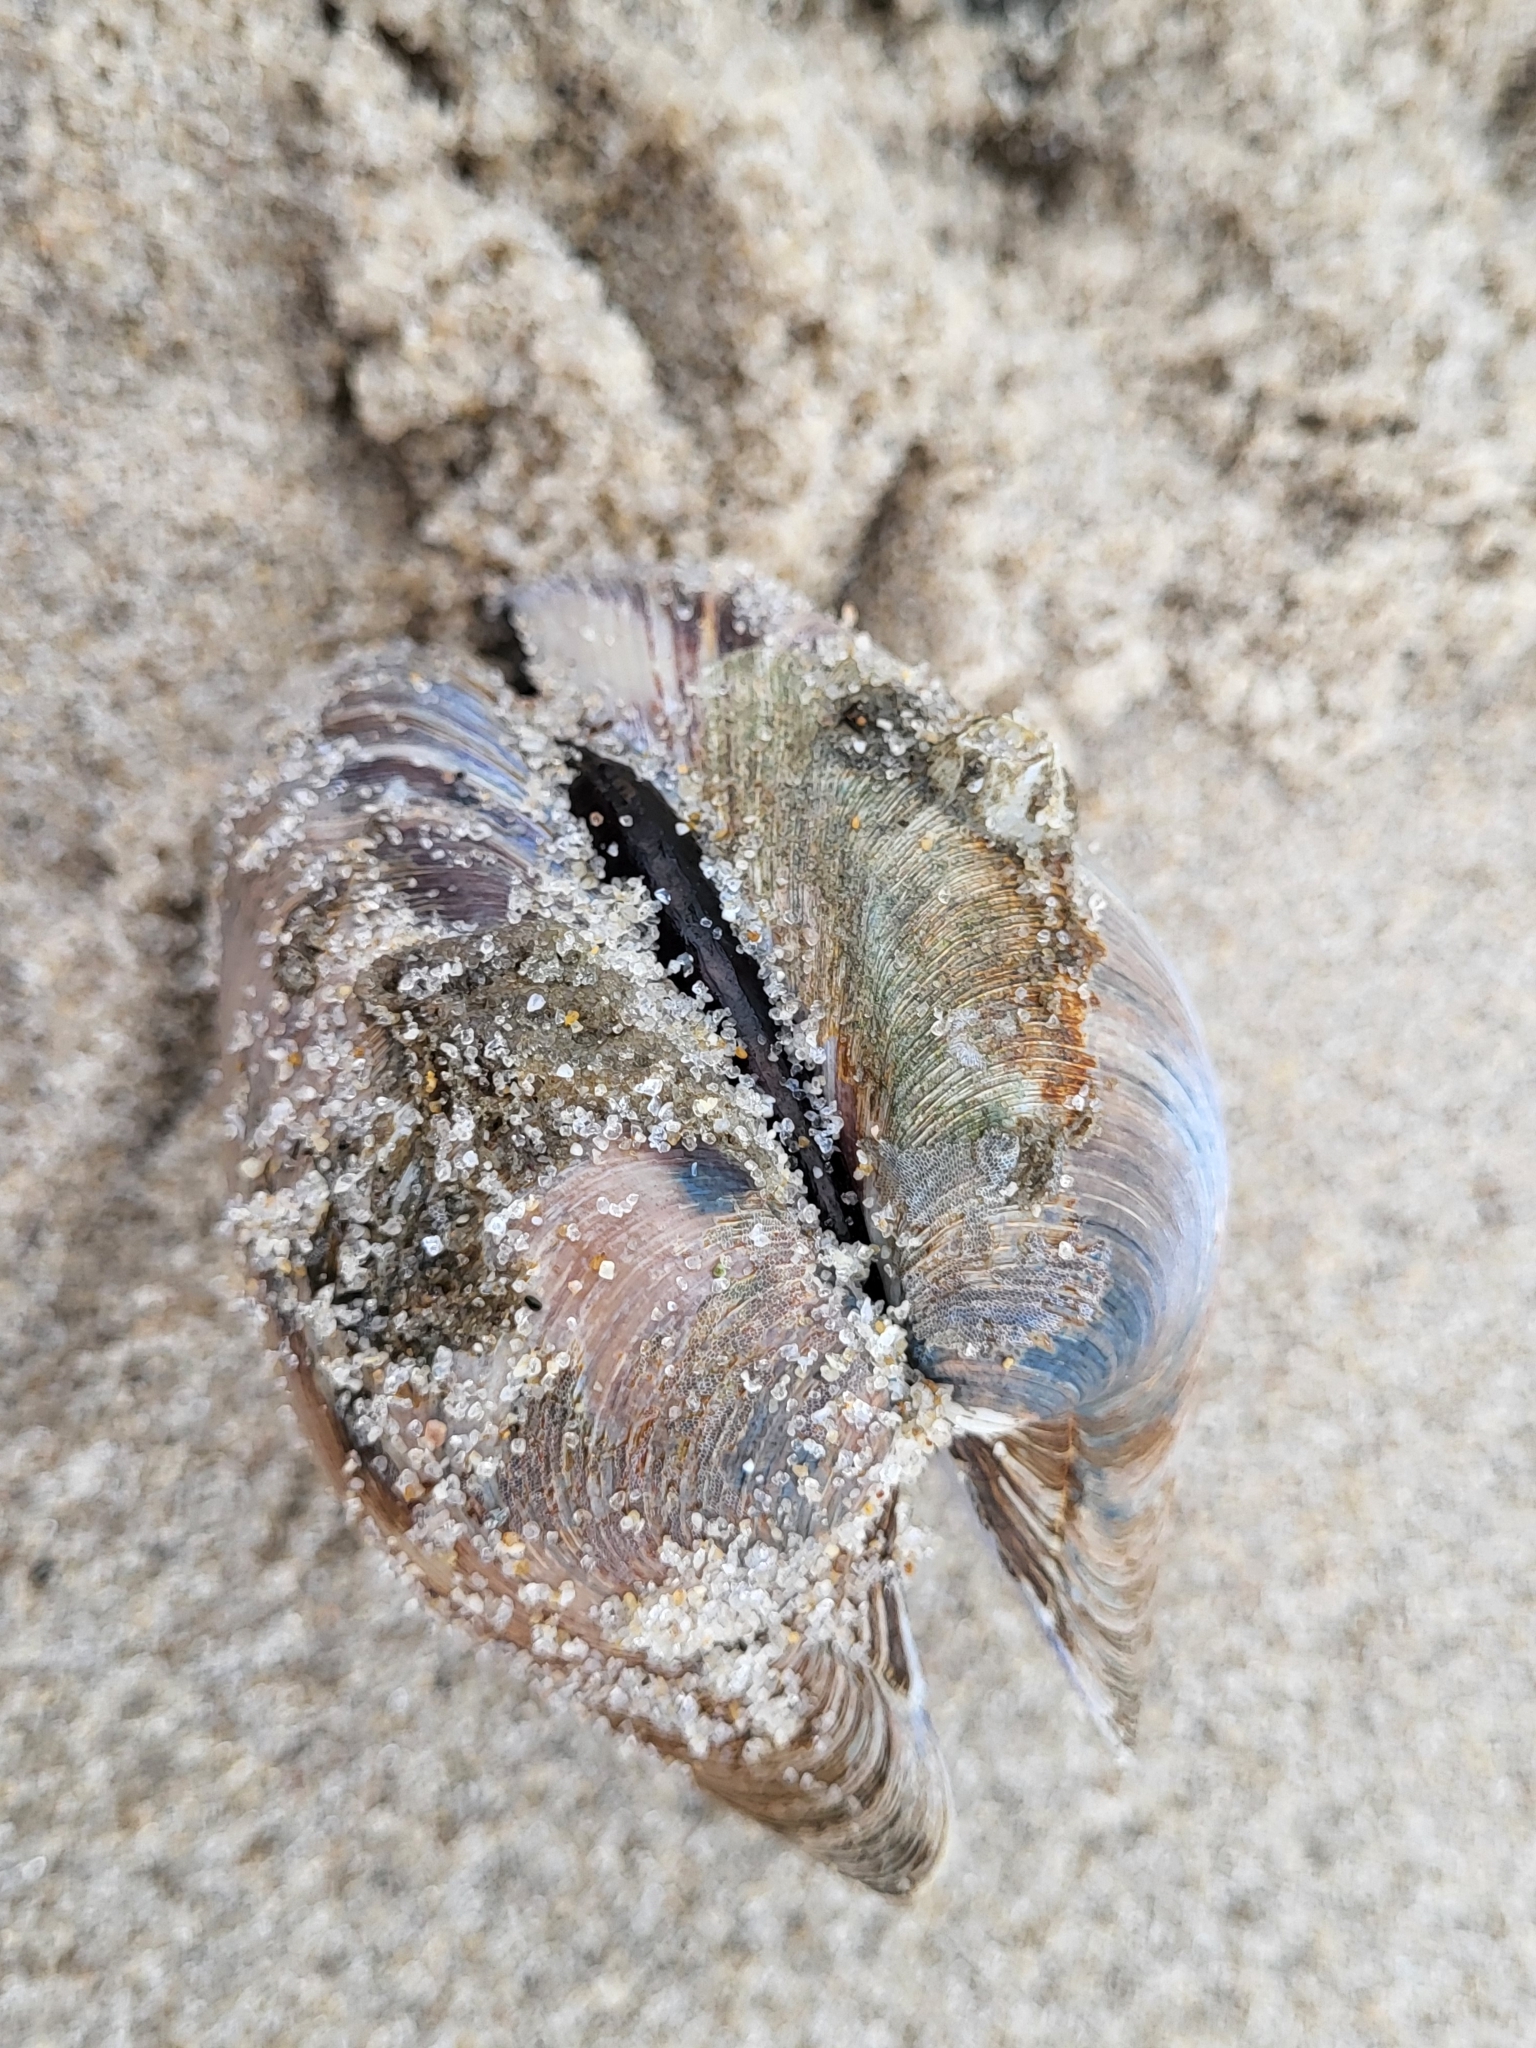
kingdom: Animalia
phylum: Mollusca
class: Bivalvia
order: Venerida
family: Veneridae
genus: Mercenaria
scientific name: Mercenaria mercenaria
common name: American hard-shelled clam
